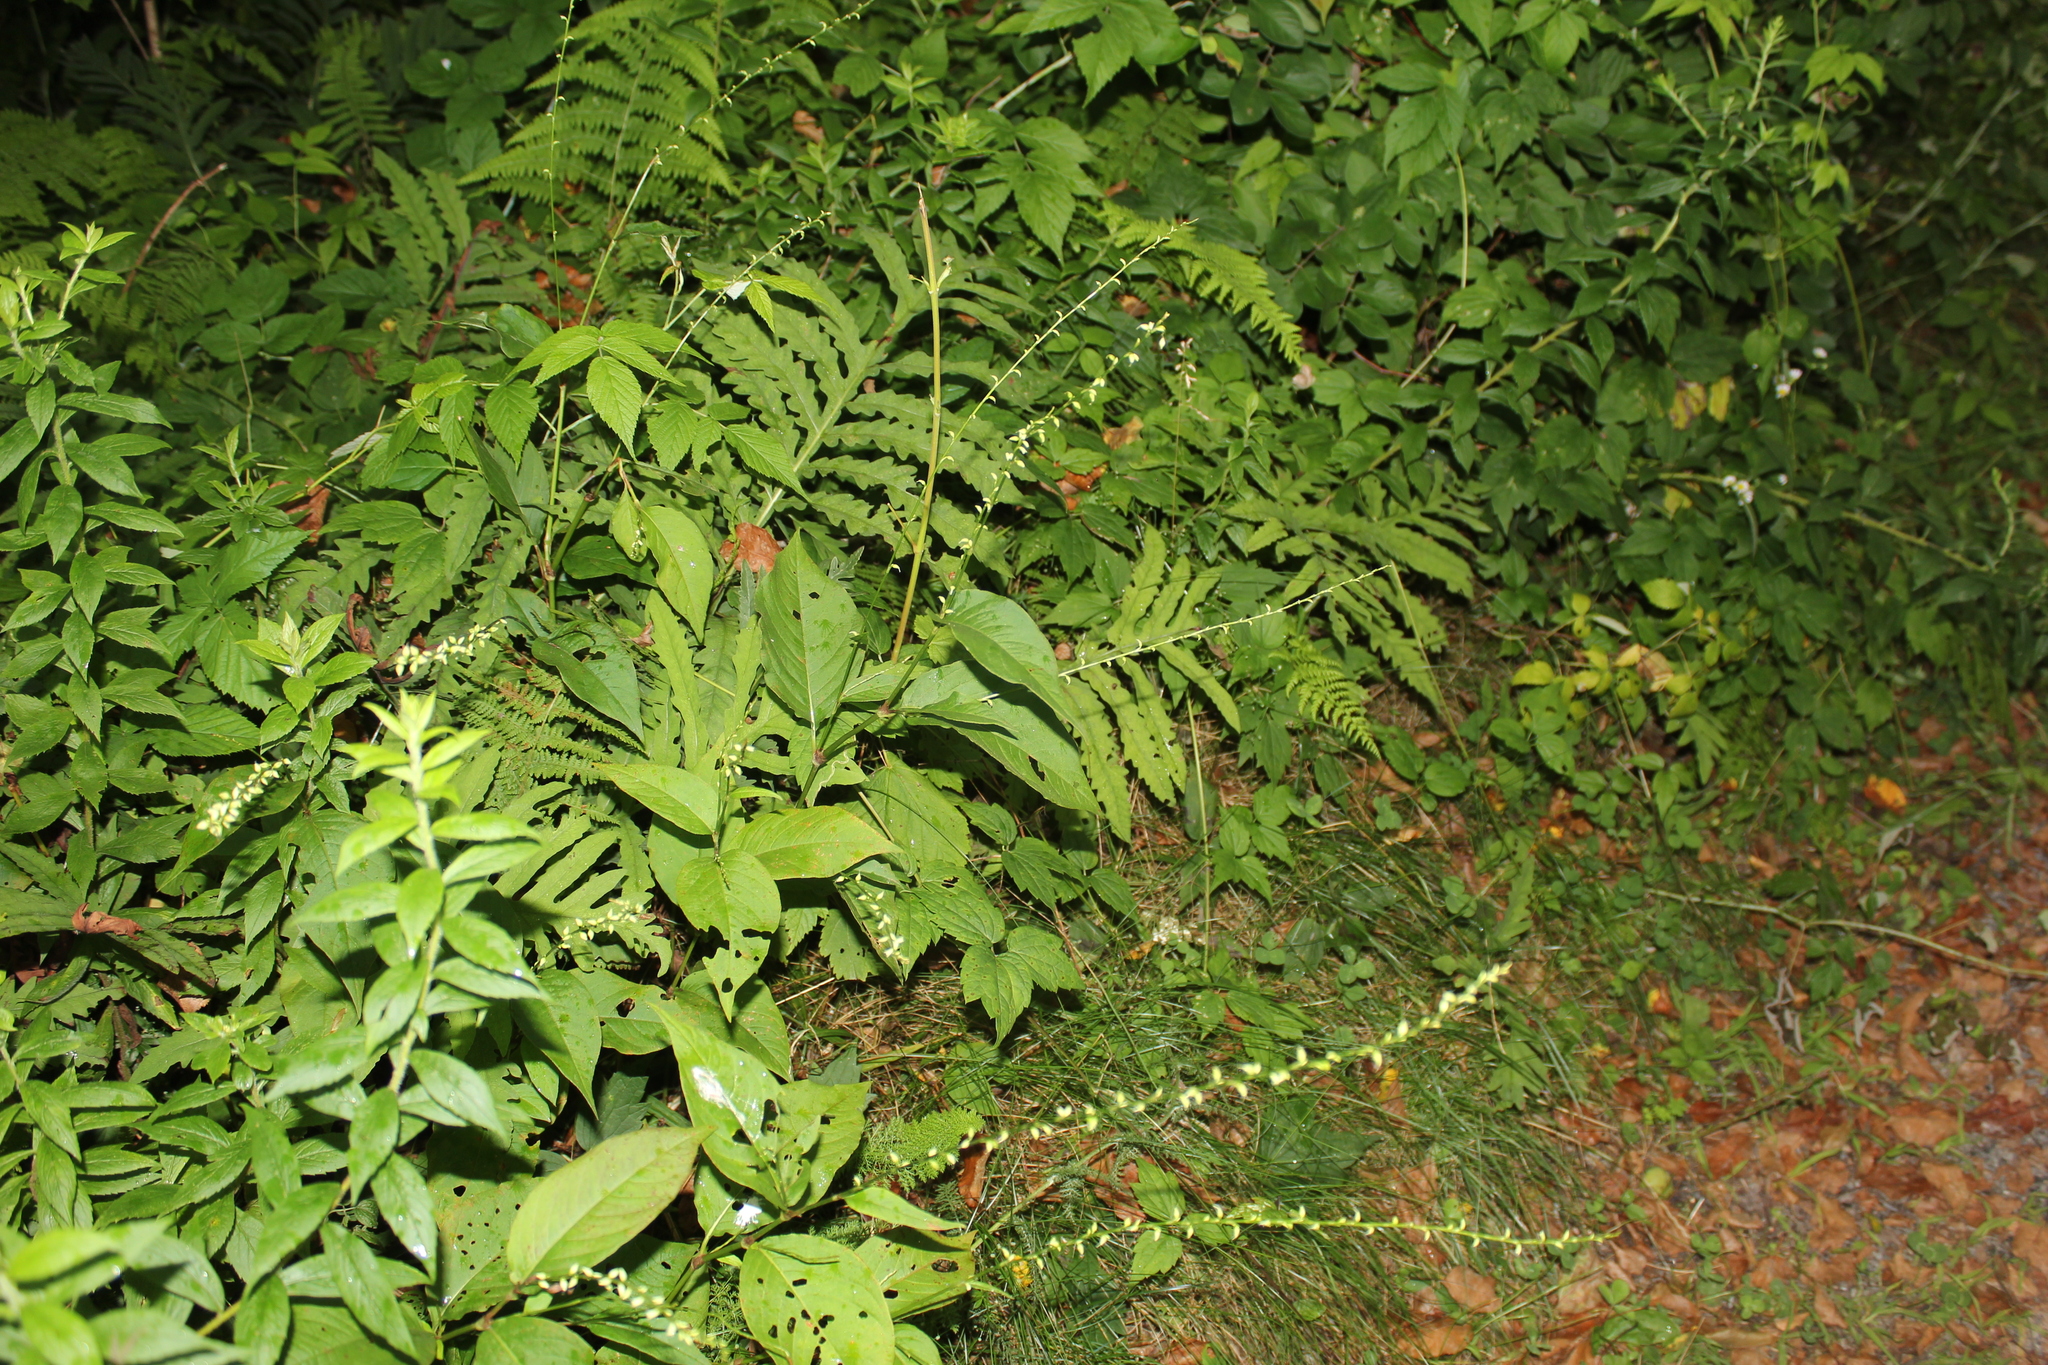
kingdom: Plantae
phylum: Tracheophyta
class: Magnoliopsida
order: Caryophyllales
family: Polygonaceae
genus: Persicaria
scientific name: Persicaria virginiana
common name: Jumpseed
